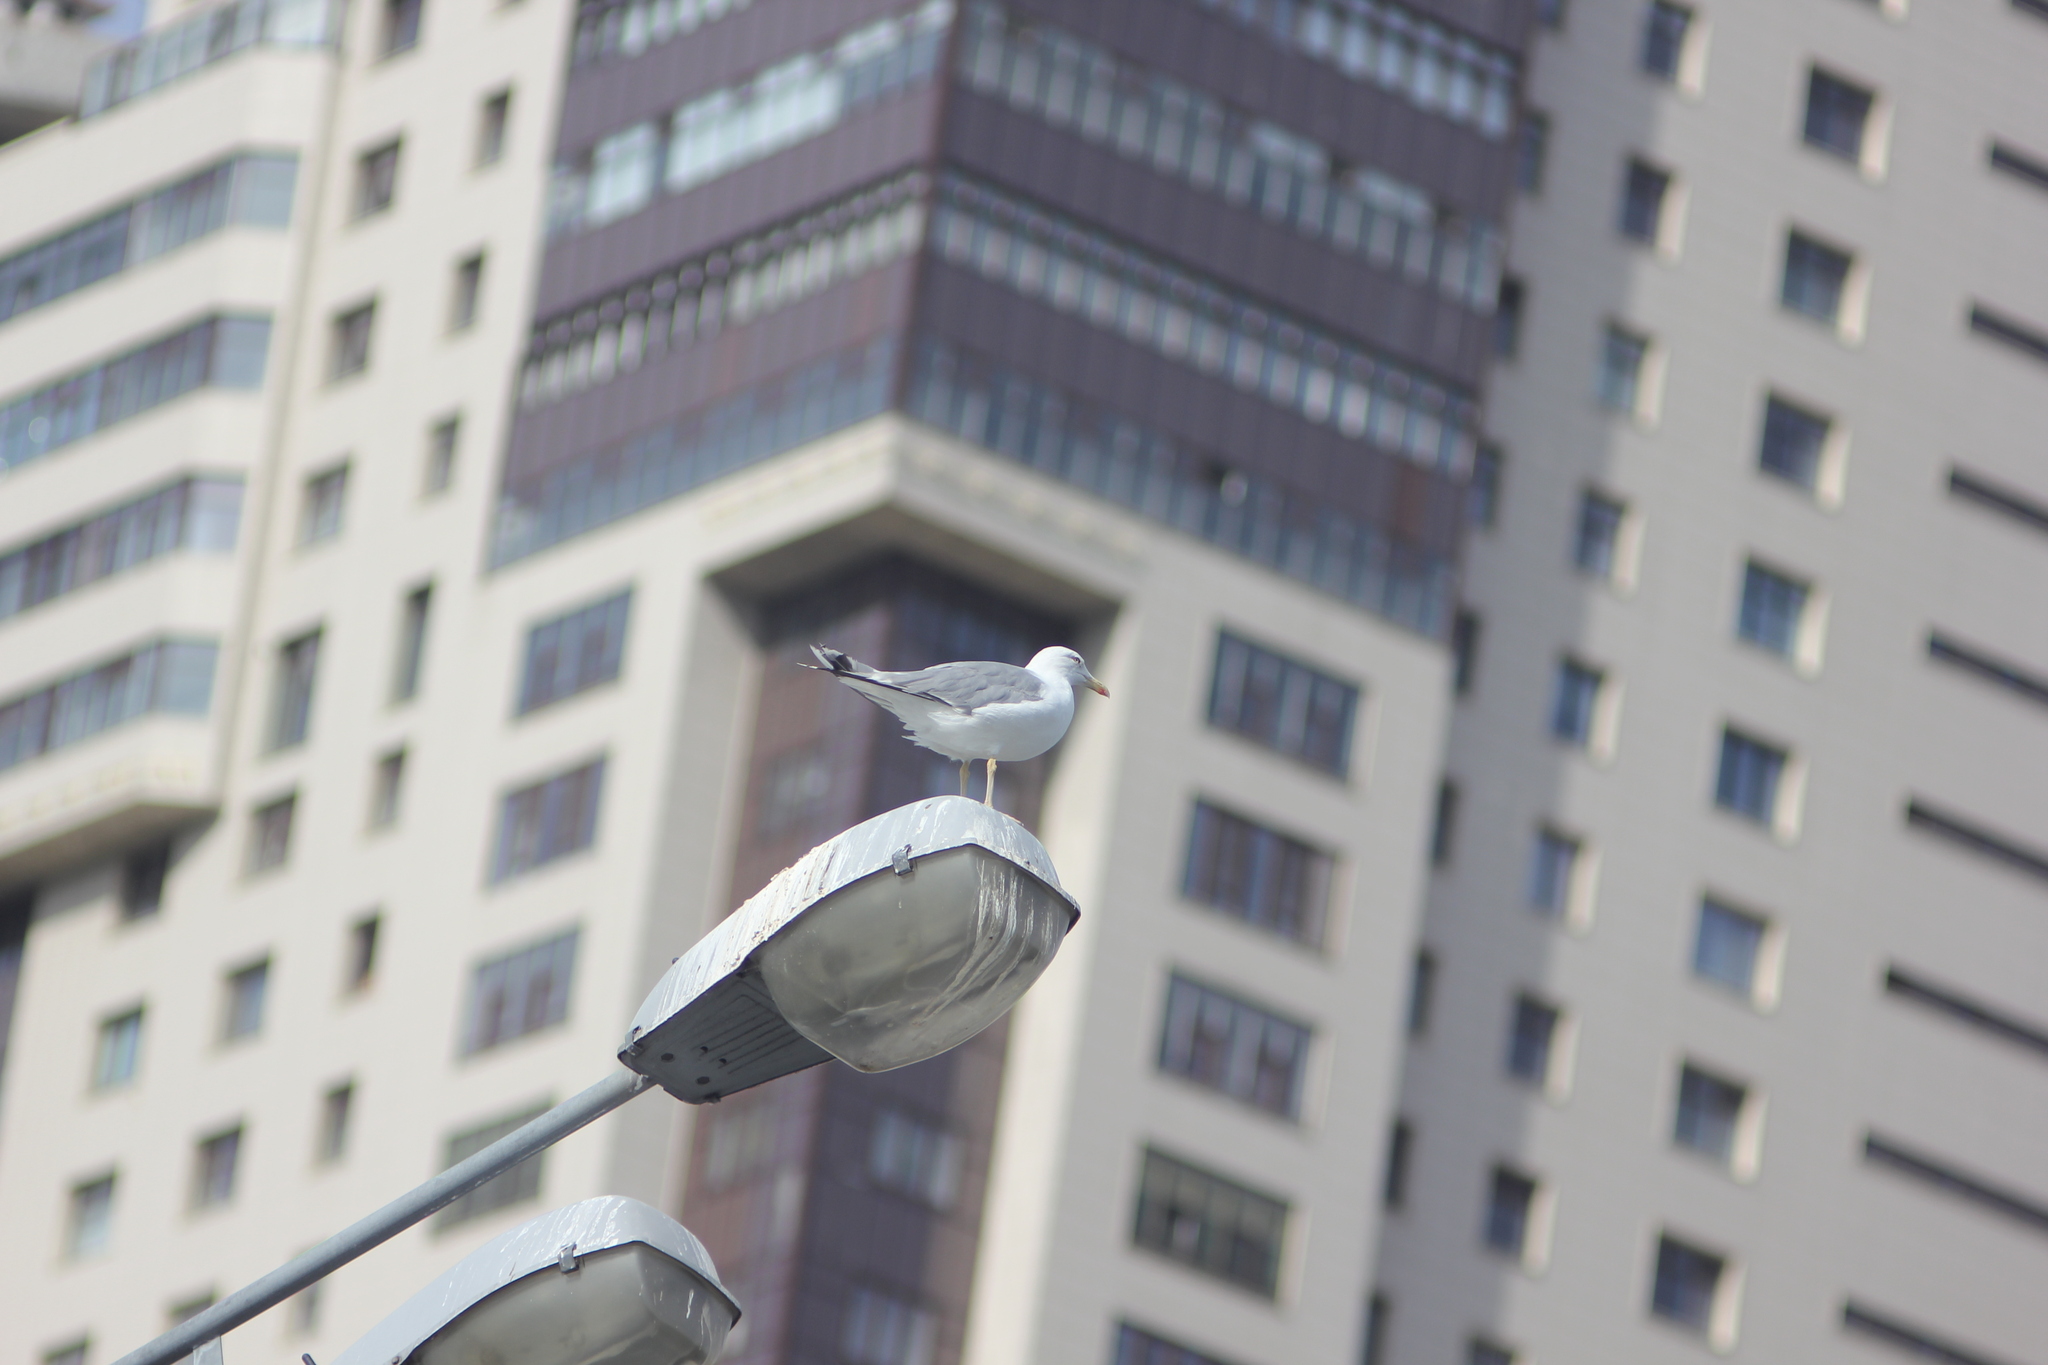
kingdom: Animalia
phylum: Chordata
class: Aves
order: Charadriiformes
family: Laridae
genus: Larus
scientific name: Larus
